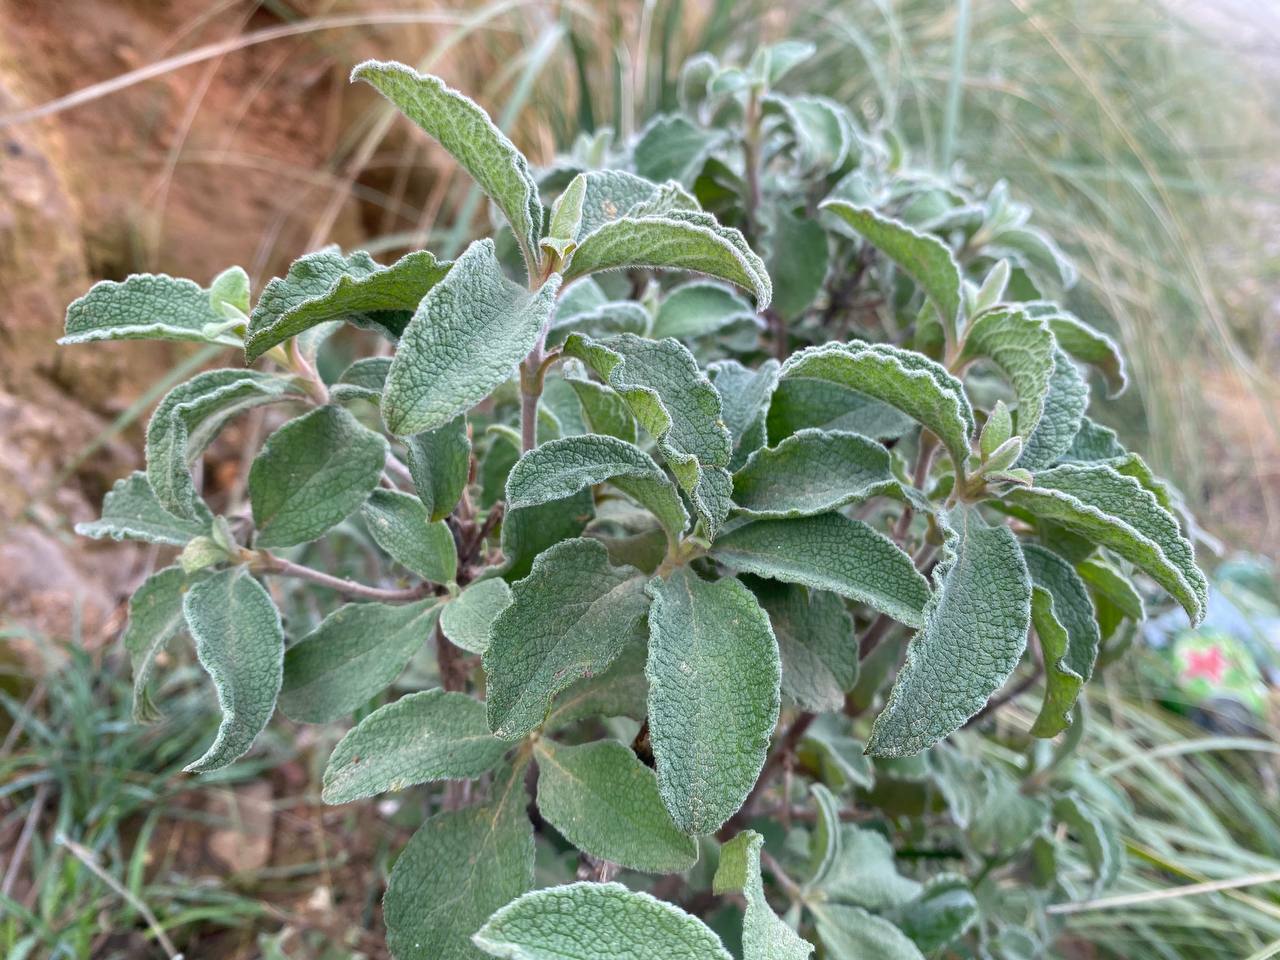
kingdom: Plantae
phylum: Tracheophyta
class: Magnoliopsida
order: Malvales
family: Cistaceae
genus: Cistus
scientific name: Cistus creticus
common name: Cretan rockrose
